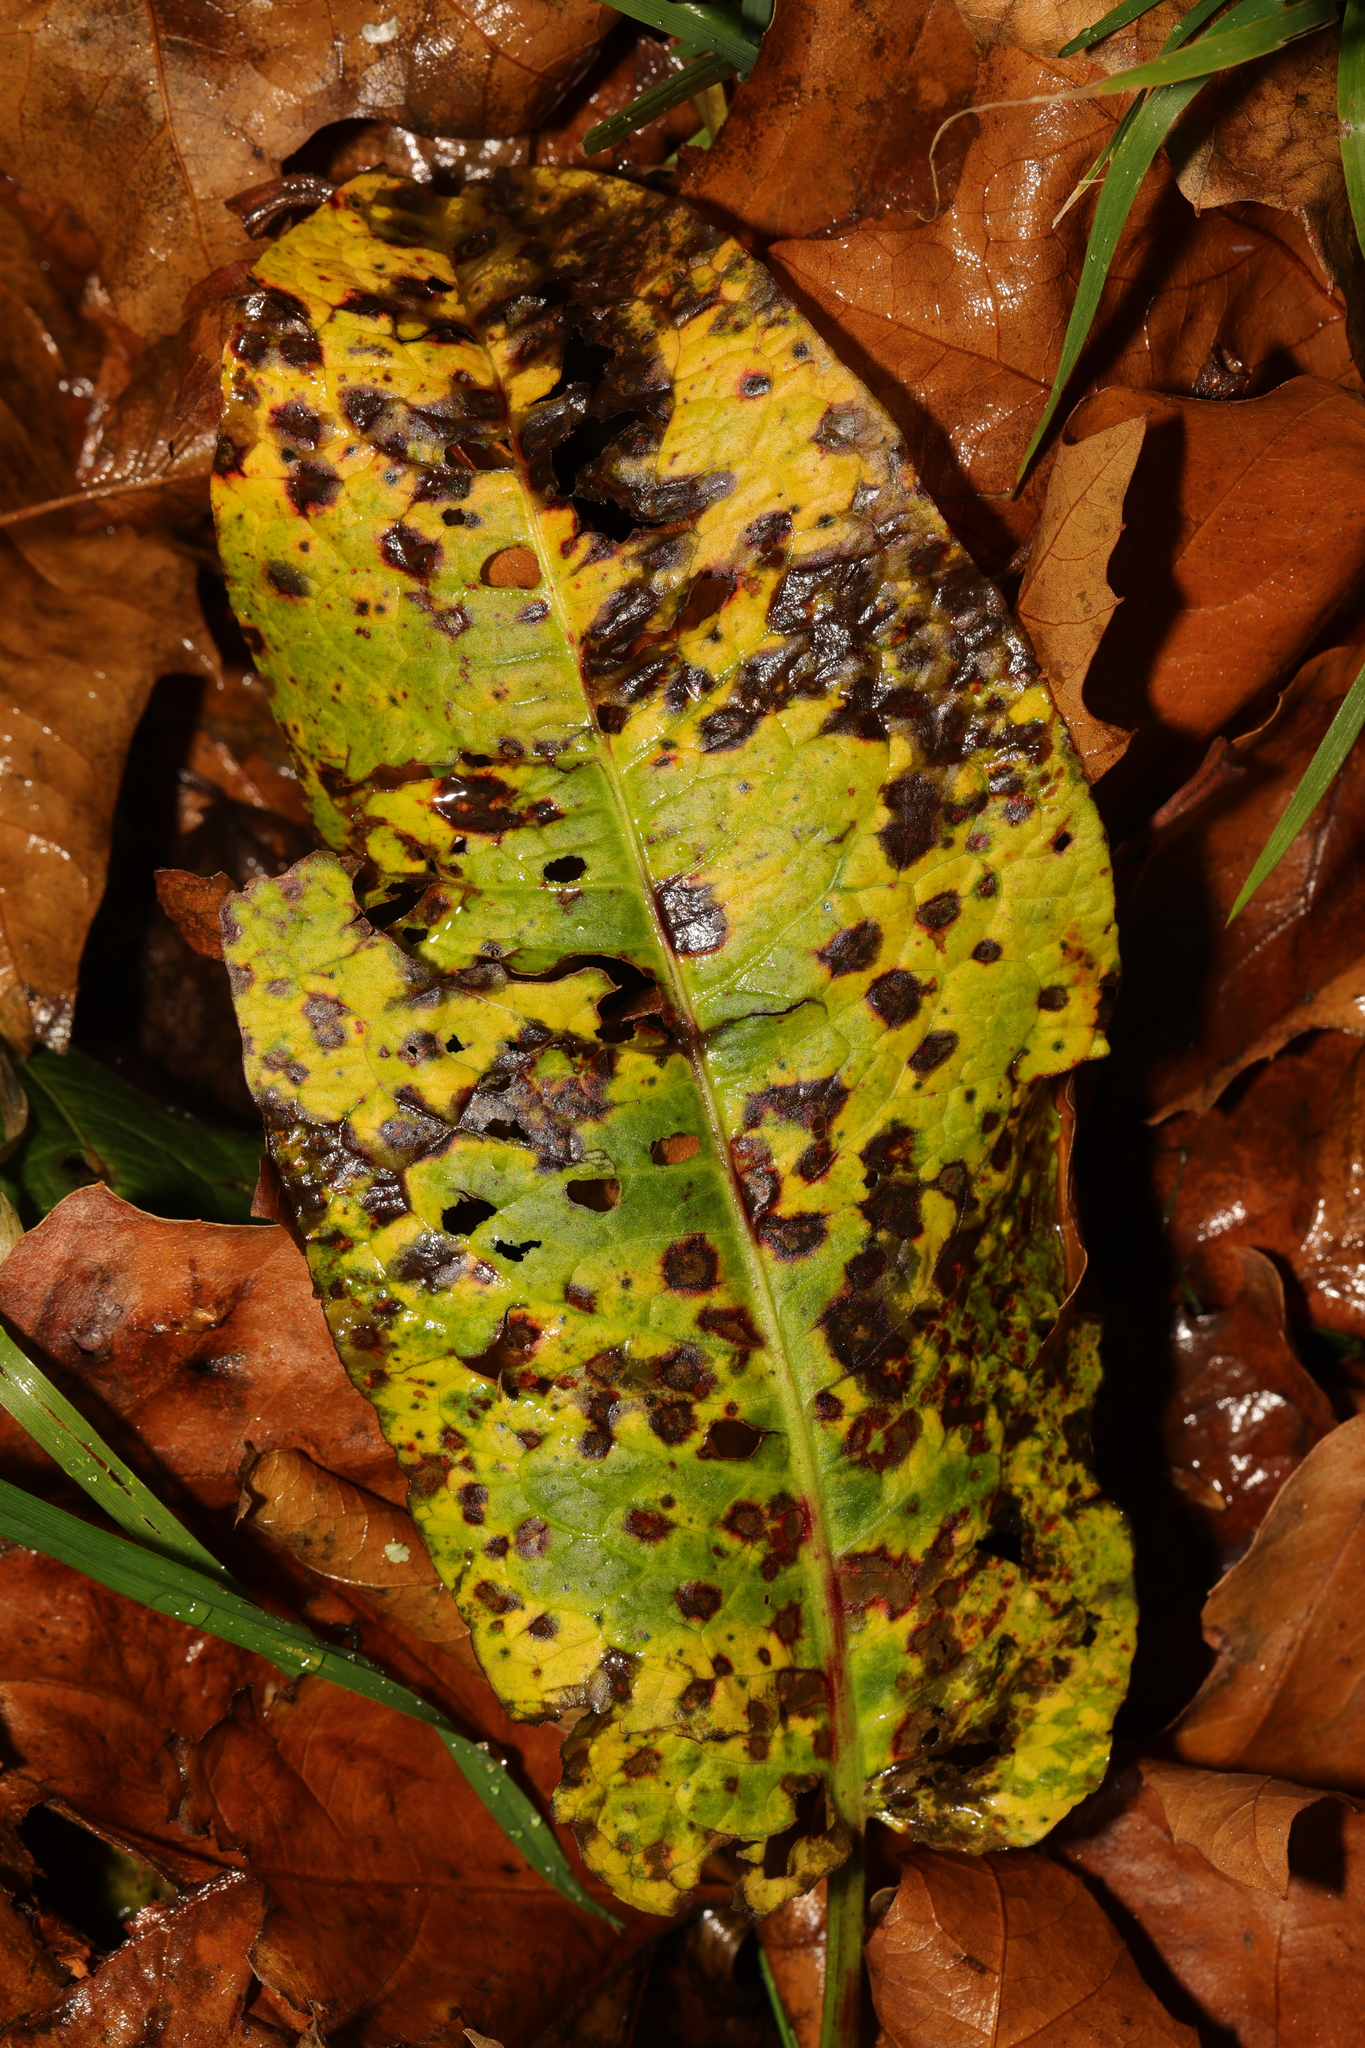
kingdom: Fungi
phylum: Ascomycota
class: Dothideomycetes
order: Mycosphaerellales
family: Mycosphaerellaceae
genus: Ramularia
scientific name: Ramularia rubella
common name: Red dock spot
